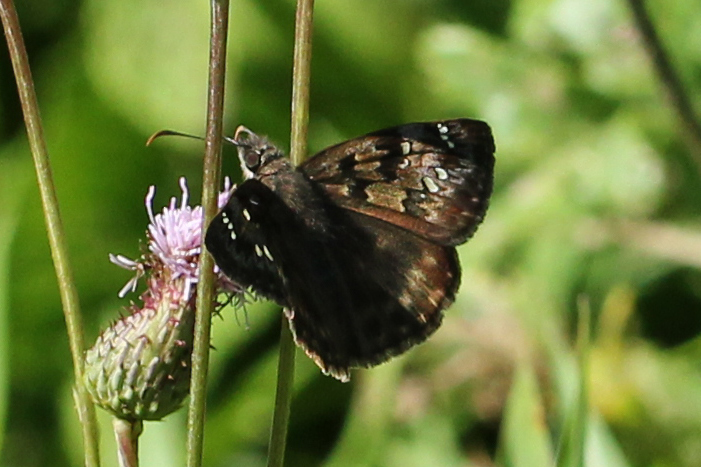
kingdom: Animalia
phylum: Arthropoda
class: Insecta
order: Lepidoptera
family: Hesperiidae
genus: Erynnis
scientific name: Erynnis horatius
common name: Horace's duskywing
